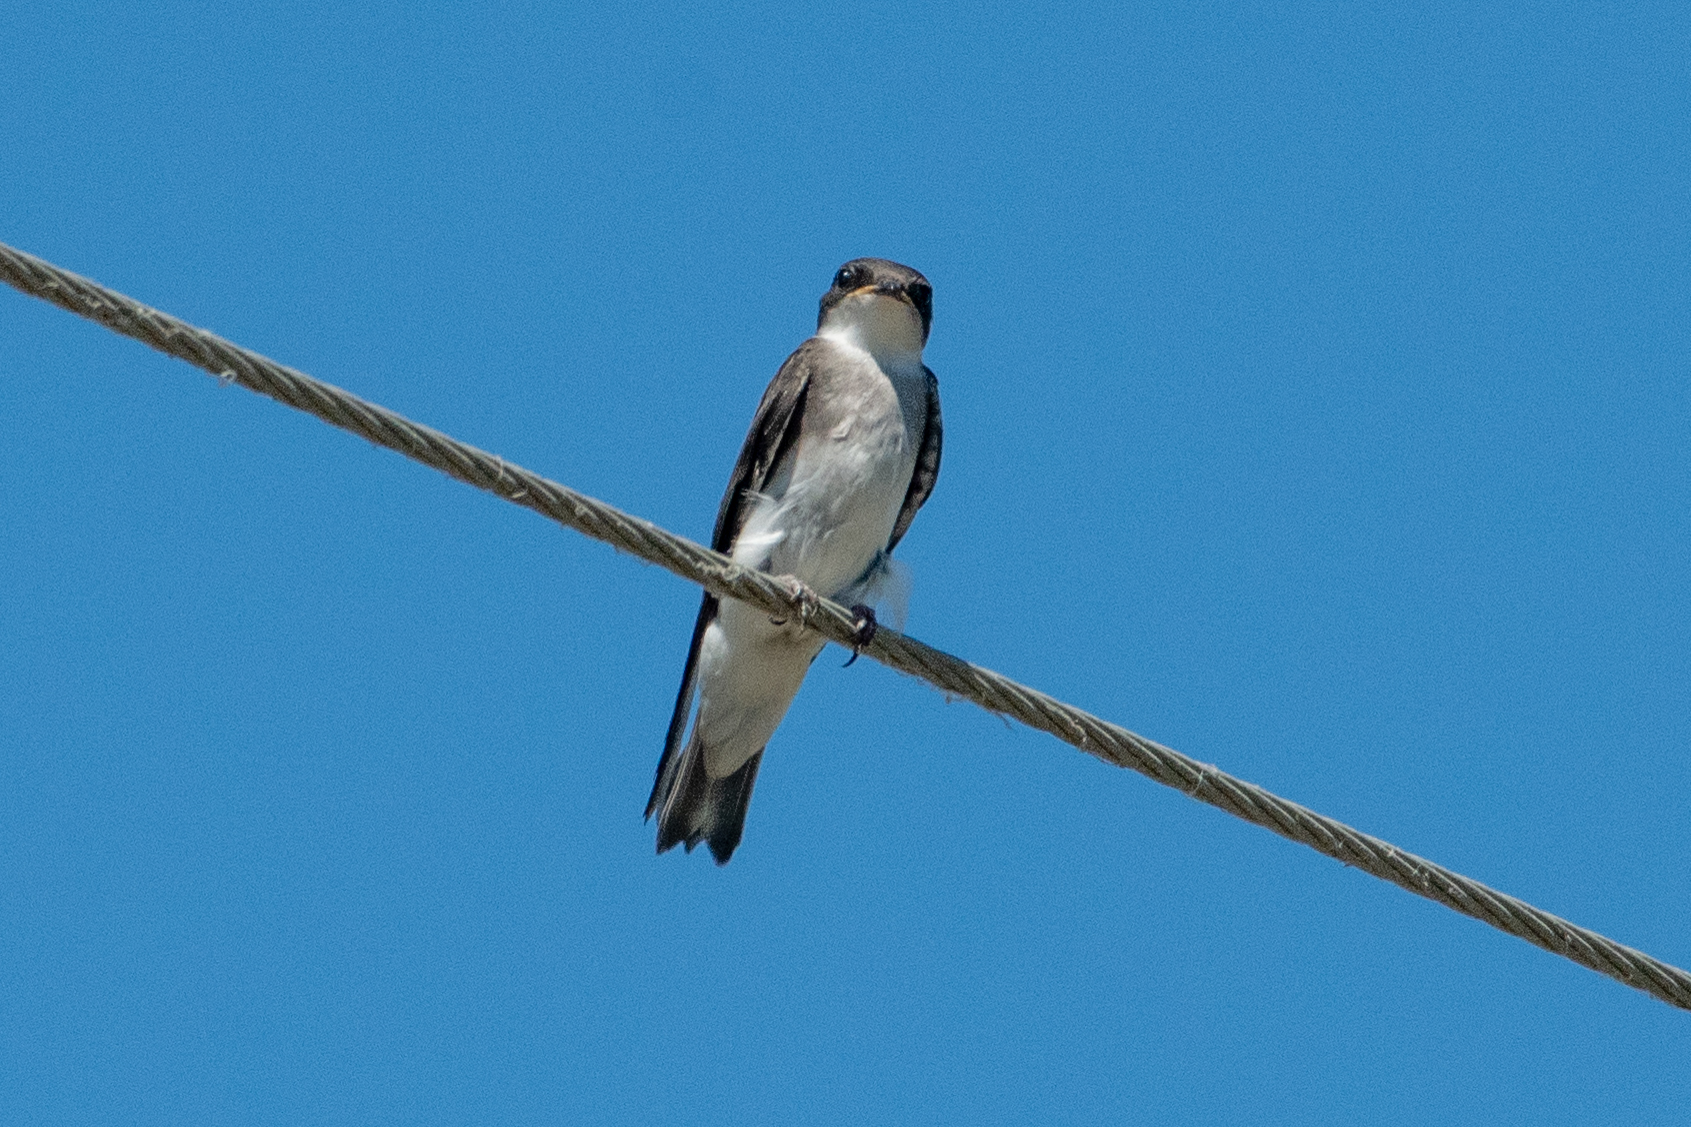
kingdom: Animalia
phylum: Chordata
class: Aves
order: Passeriformes
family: Hirundinidae
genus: Tachycineta
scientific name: Tachycineta bicolor
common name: Tree swallow
